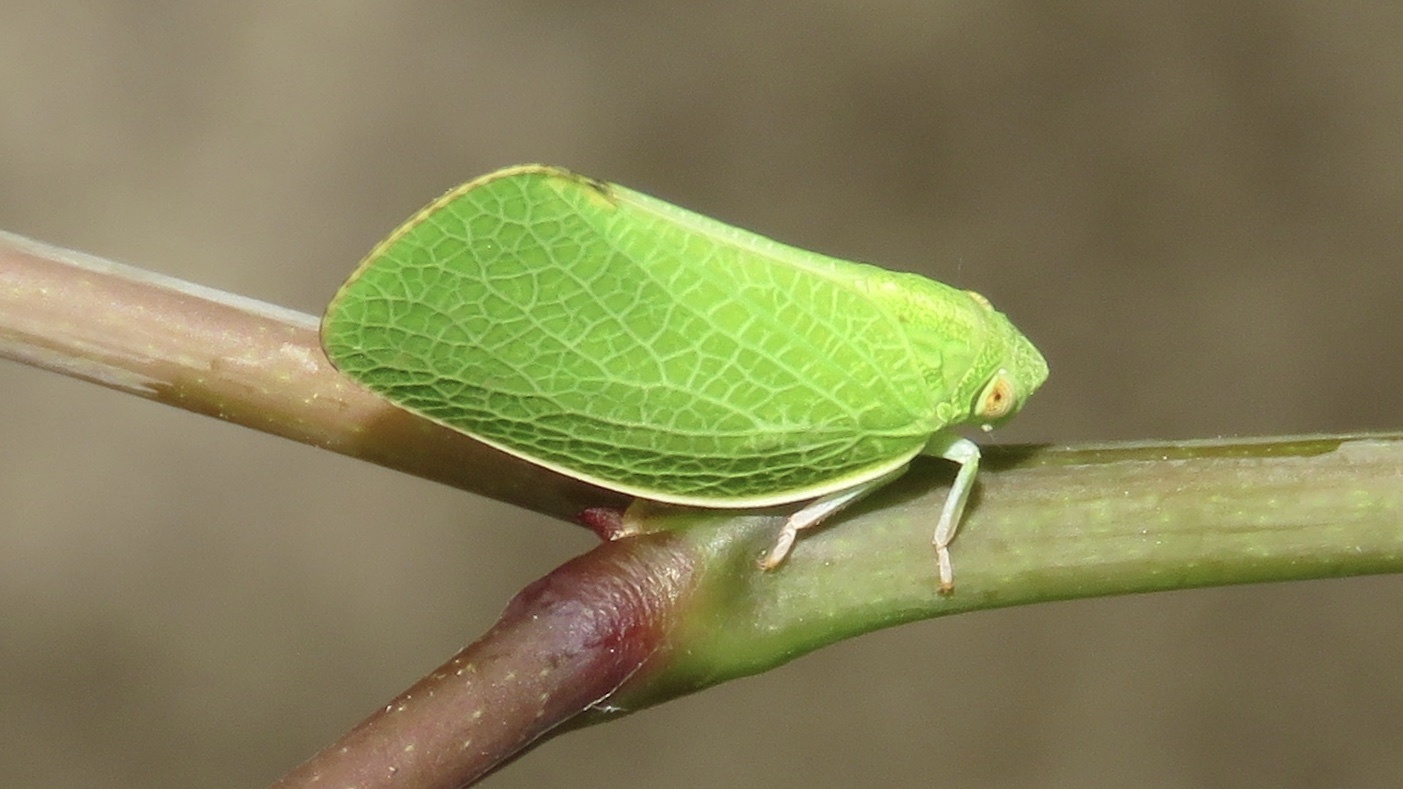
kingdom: Animalia
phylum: Arthropoda
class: Insecta
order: Hemiptera
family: Acanaloniidae
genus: Acanalonia
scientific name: Acanalonia conica
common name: Green cone-headed planthopper
